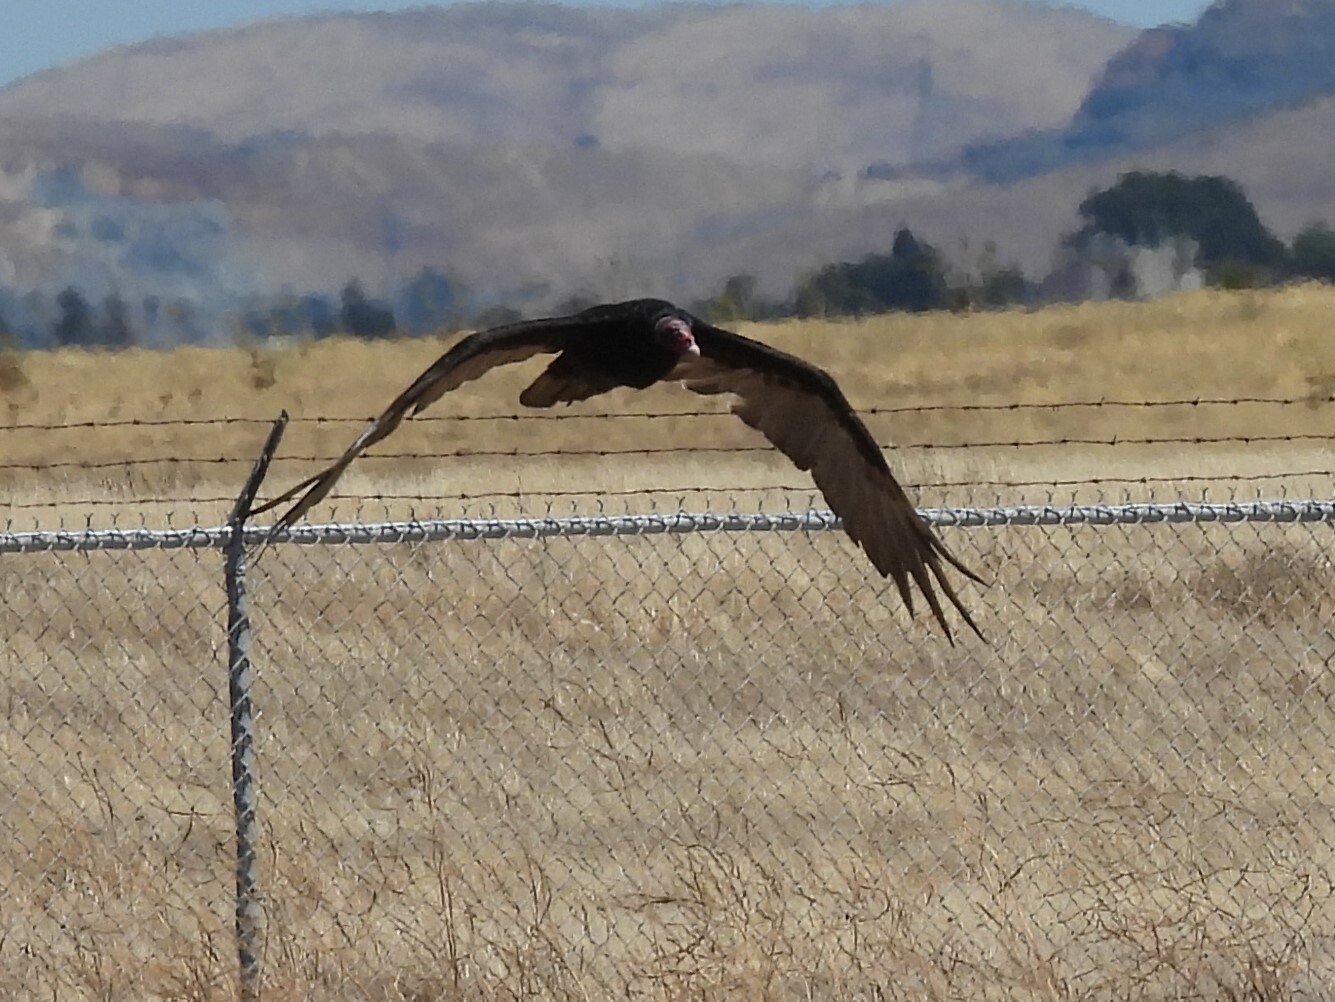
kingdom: Animalia
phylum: Chordata
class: Aves
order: Accipitriformes
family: Cathartidae
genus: Cathartes
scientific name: Cathartes aura
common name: Turkey vulture
